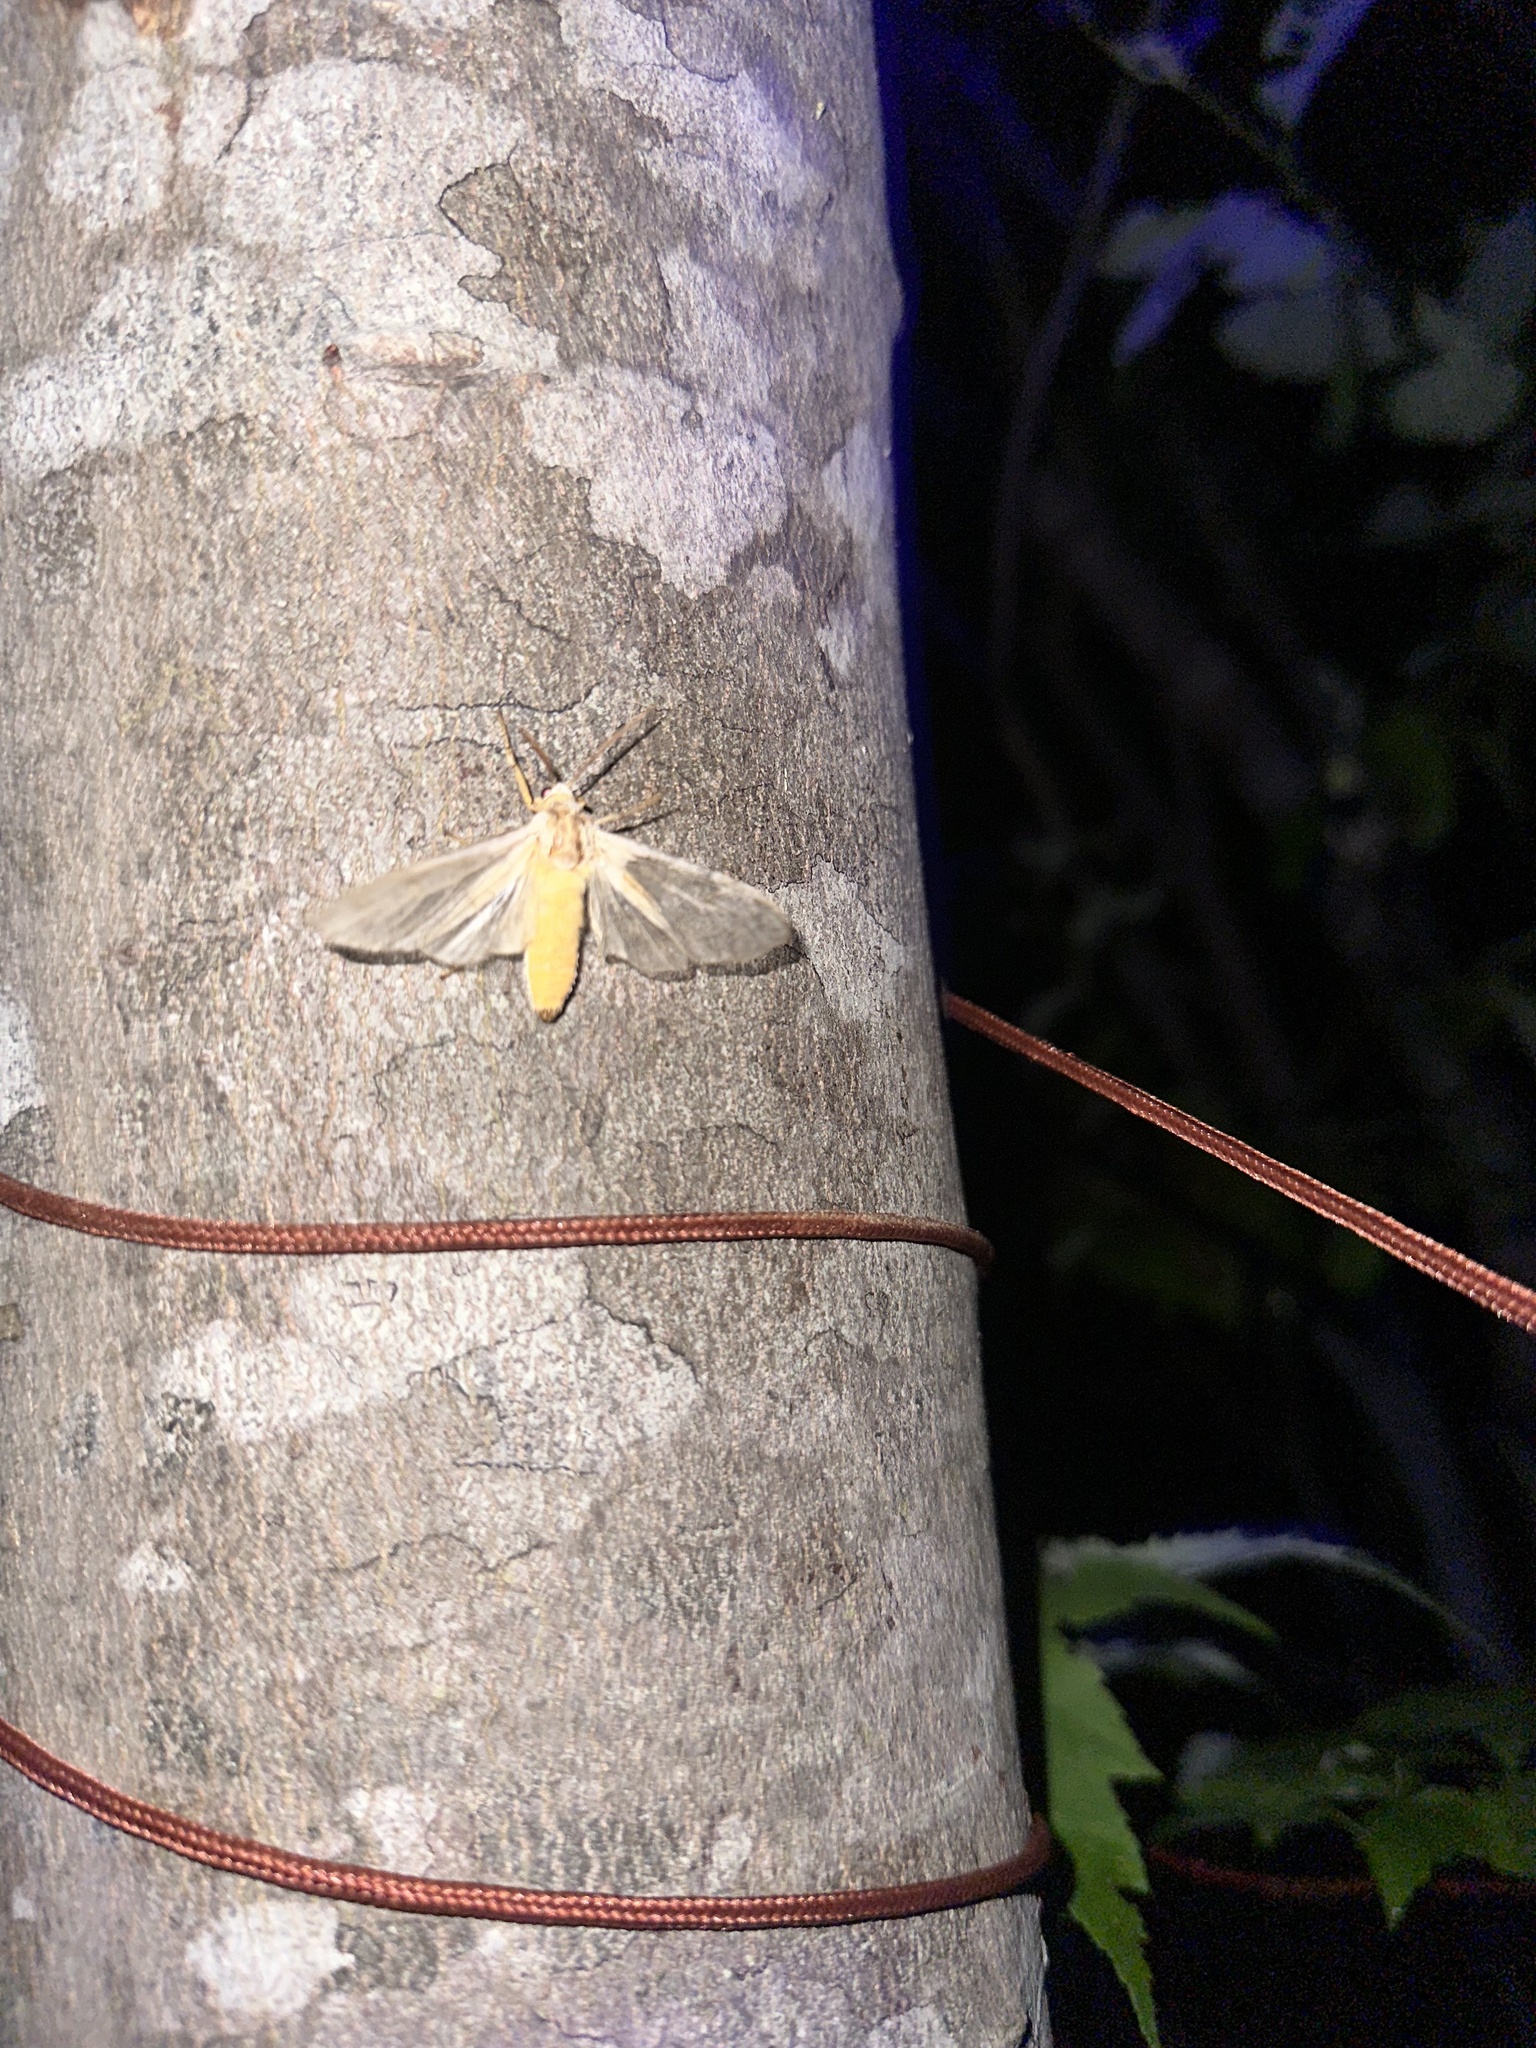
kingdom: Animalia
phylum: Arthropoda
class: Insecta
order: Lepidoptera
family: Erebidae
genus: Halysidota
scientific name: Halysidota tessellaris
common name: Banded tussock moth
